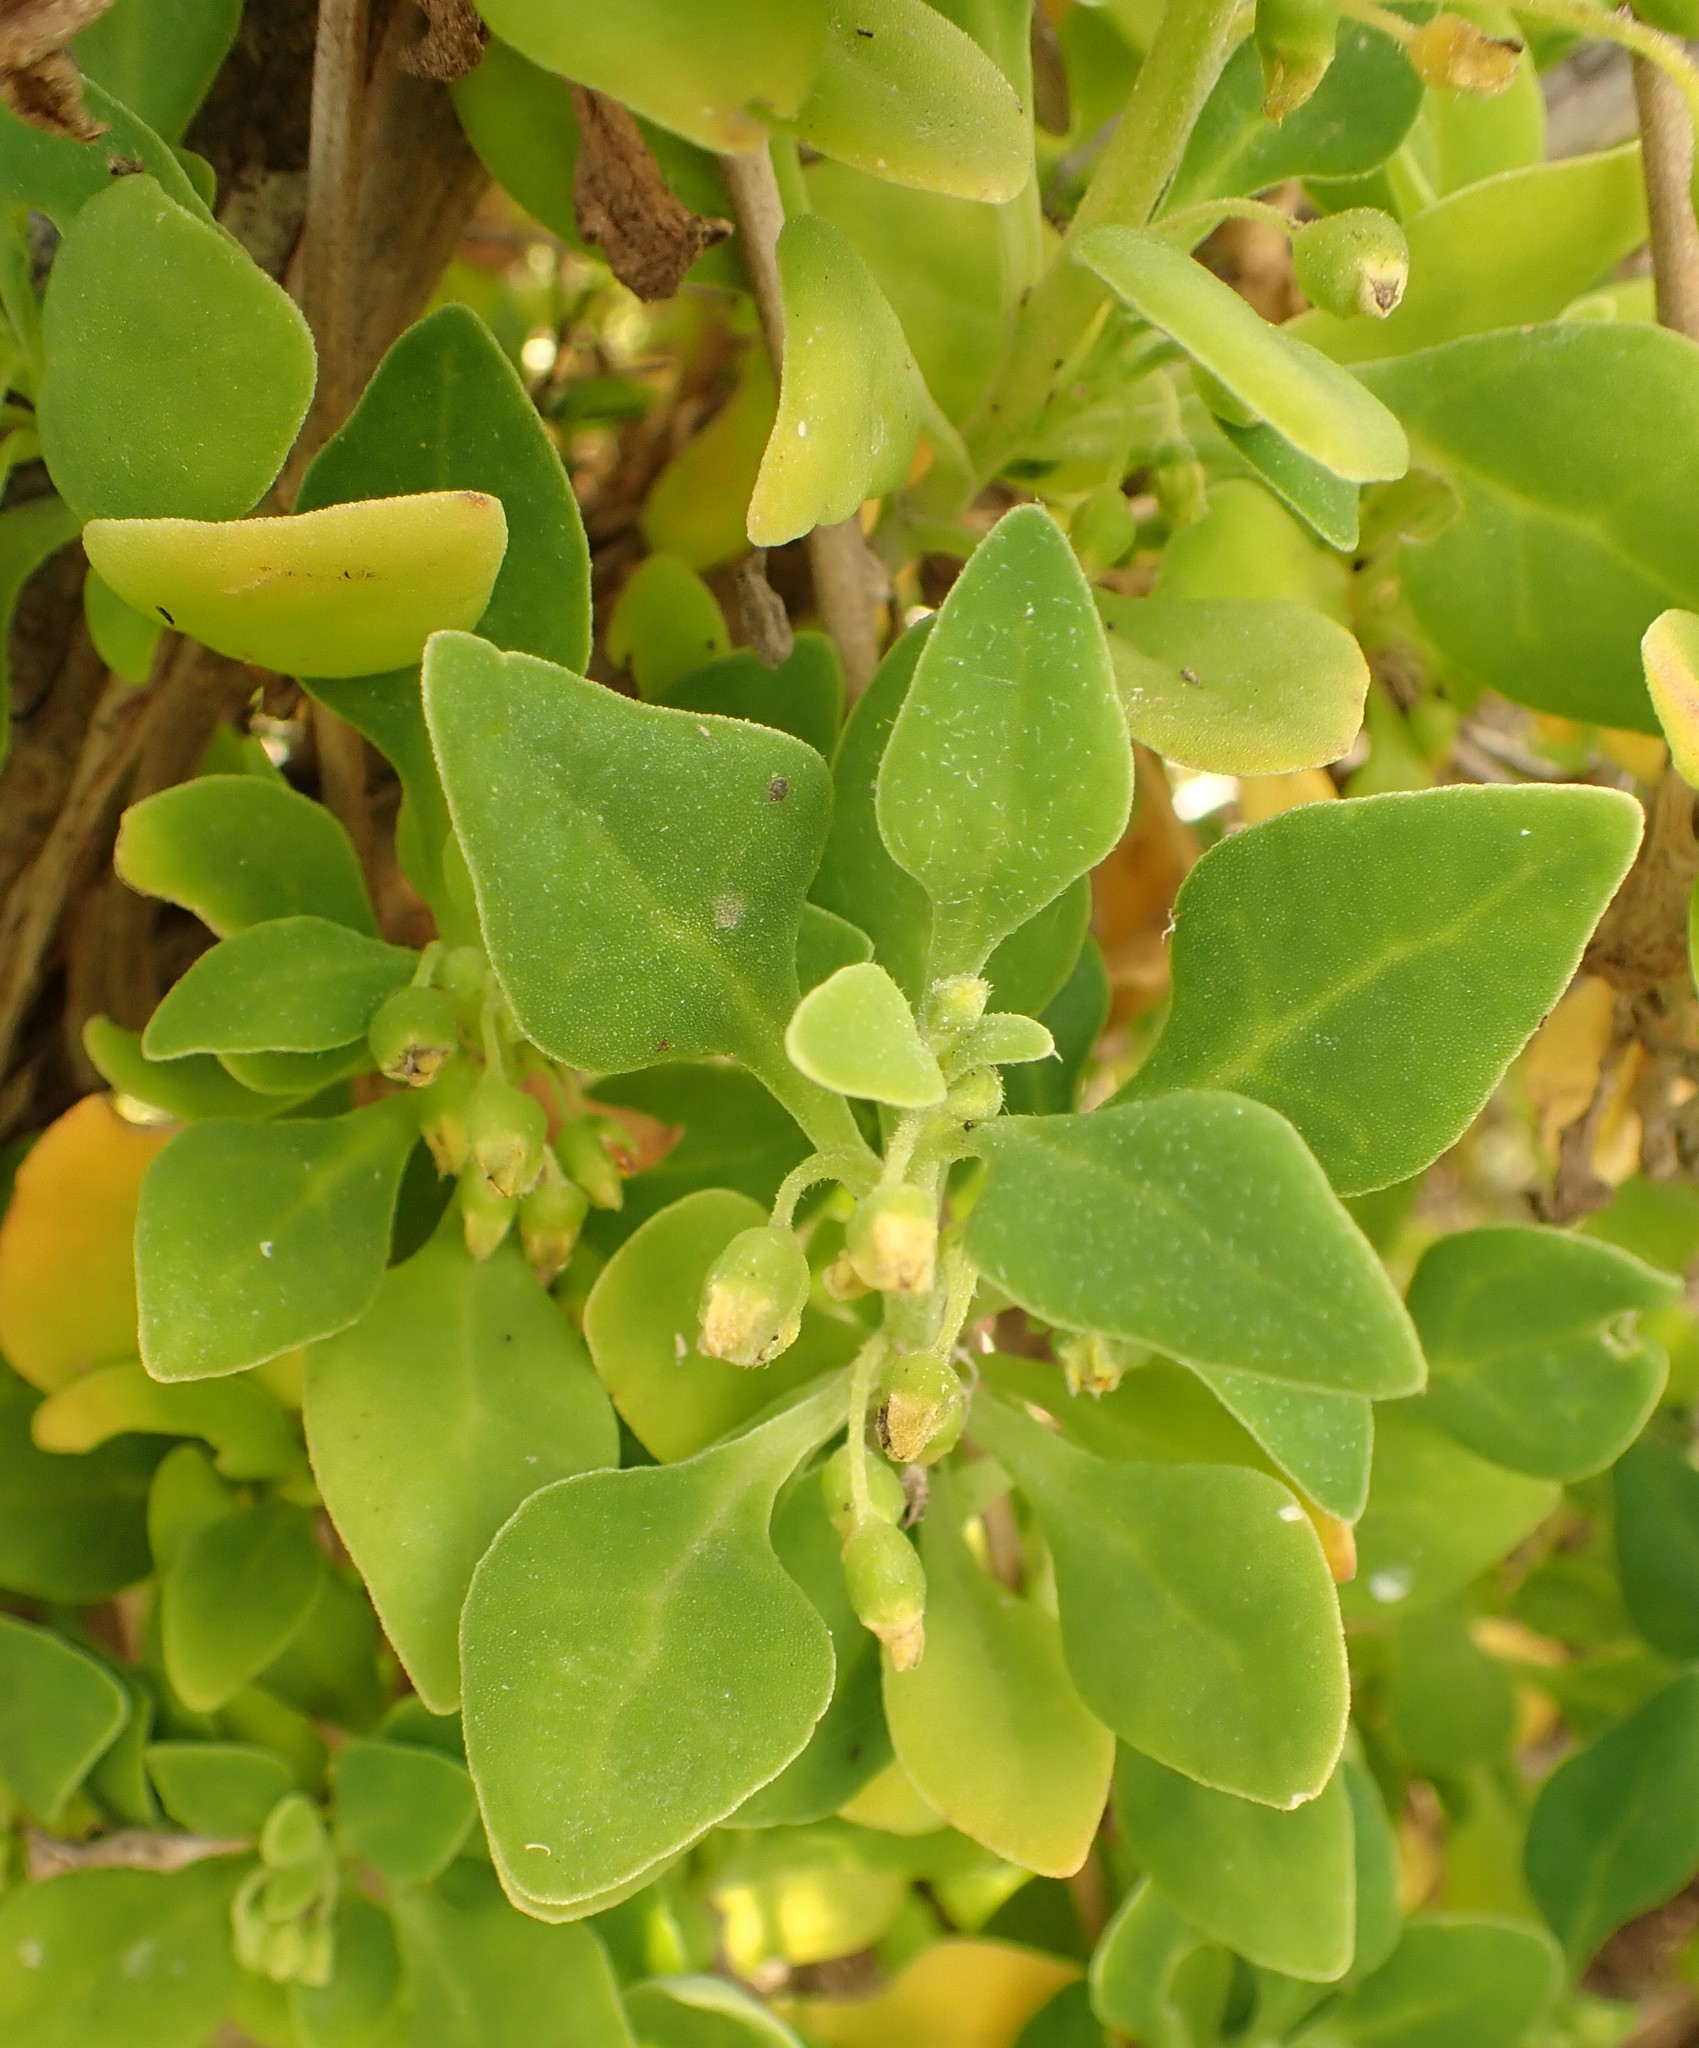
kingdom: Plantae
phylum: Tracheophyta
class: Magnoliopsida
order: Caryophyllales
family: Aizoaceae
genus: Tetragonia
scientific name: Tetragonia implexicoma
